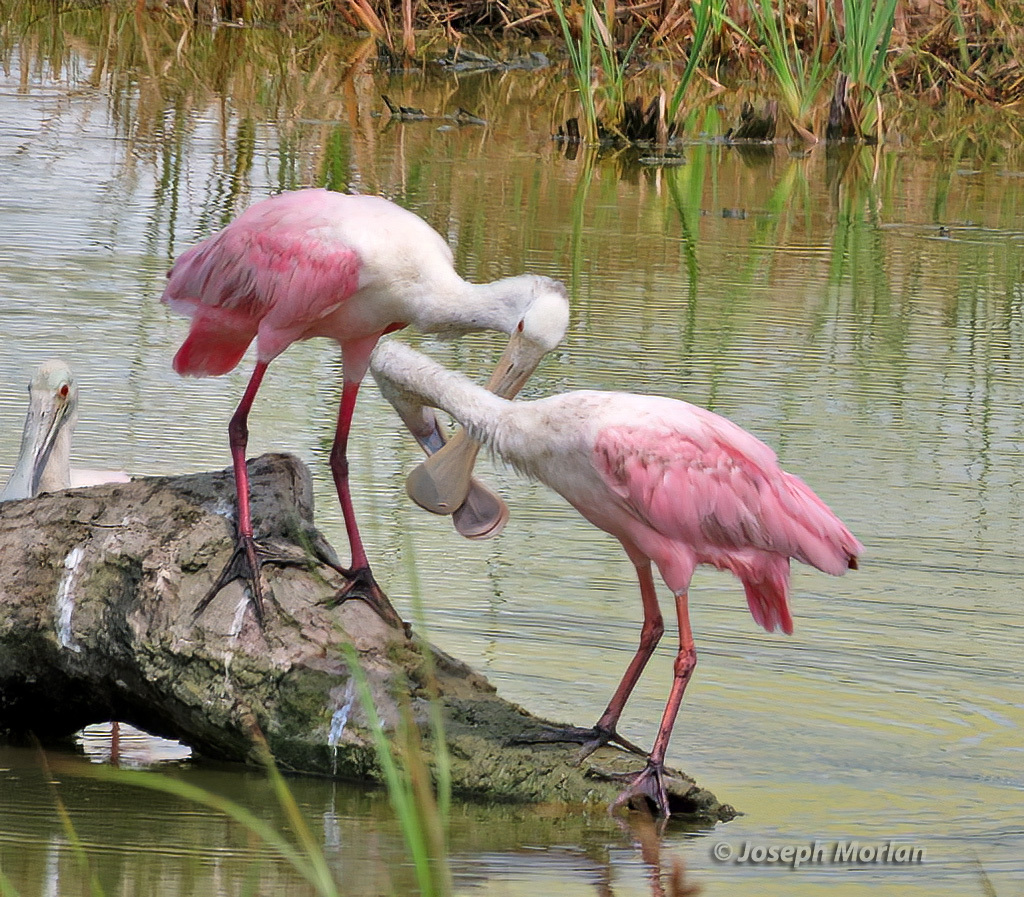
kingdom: Animalia
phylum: Chordata
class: Aves
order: Pelecaniformes
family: Threskiornithidae
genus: Platalea
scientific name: Platalea ajaja
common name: Roseate spoonbill
